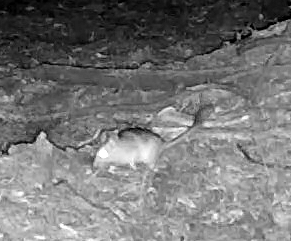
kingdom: Animalia
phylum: Chordata
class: Mammalia
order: Rodentia
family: Cricetidae
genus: Neotoma
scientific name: Neotoma cinerea
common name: Bushy-tailed woodrat
